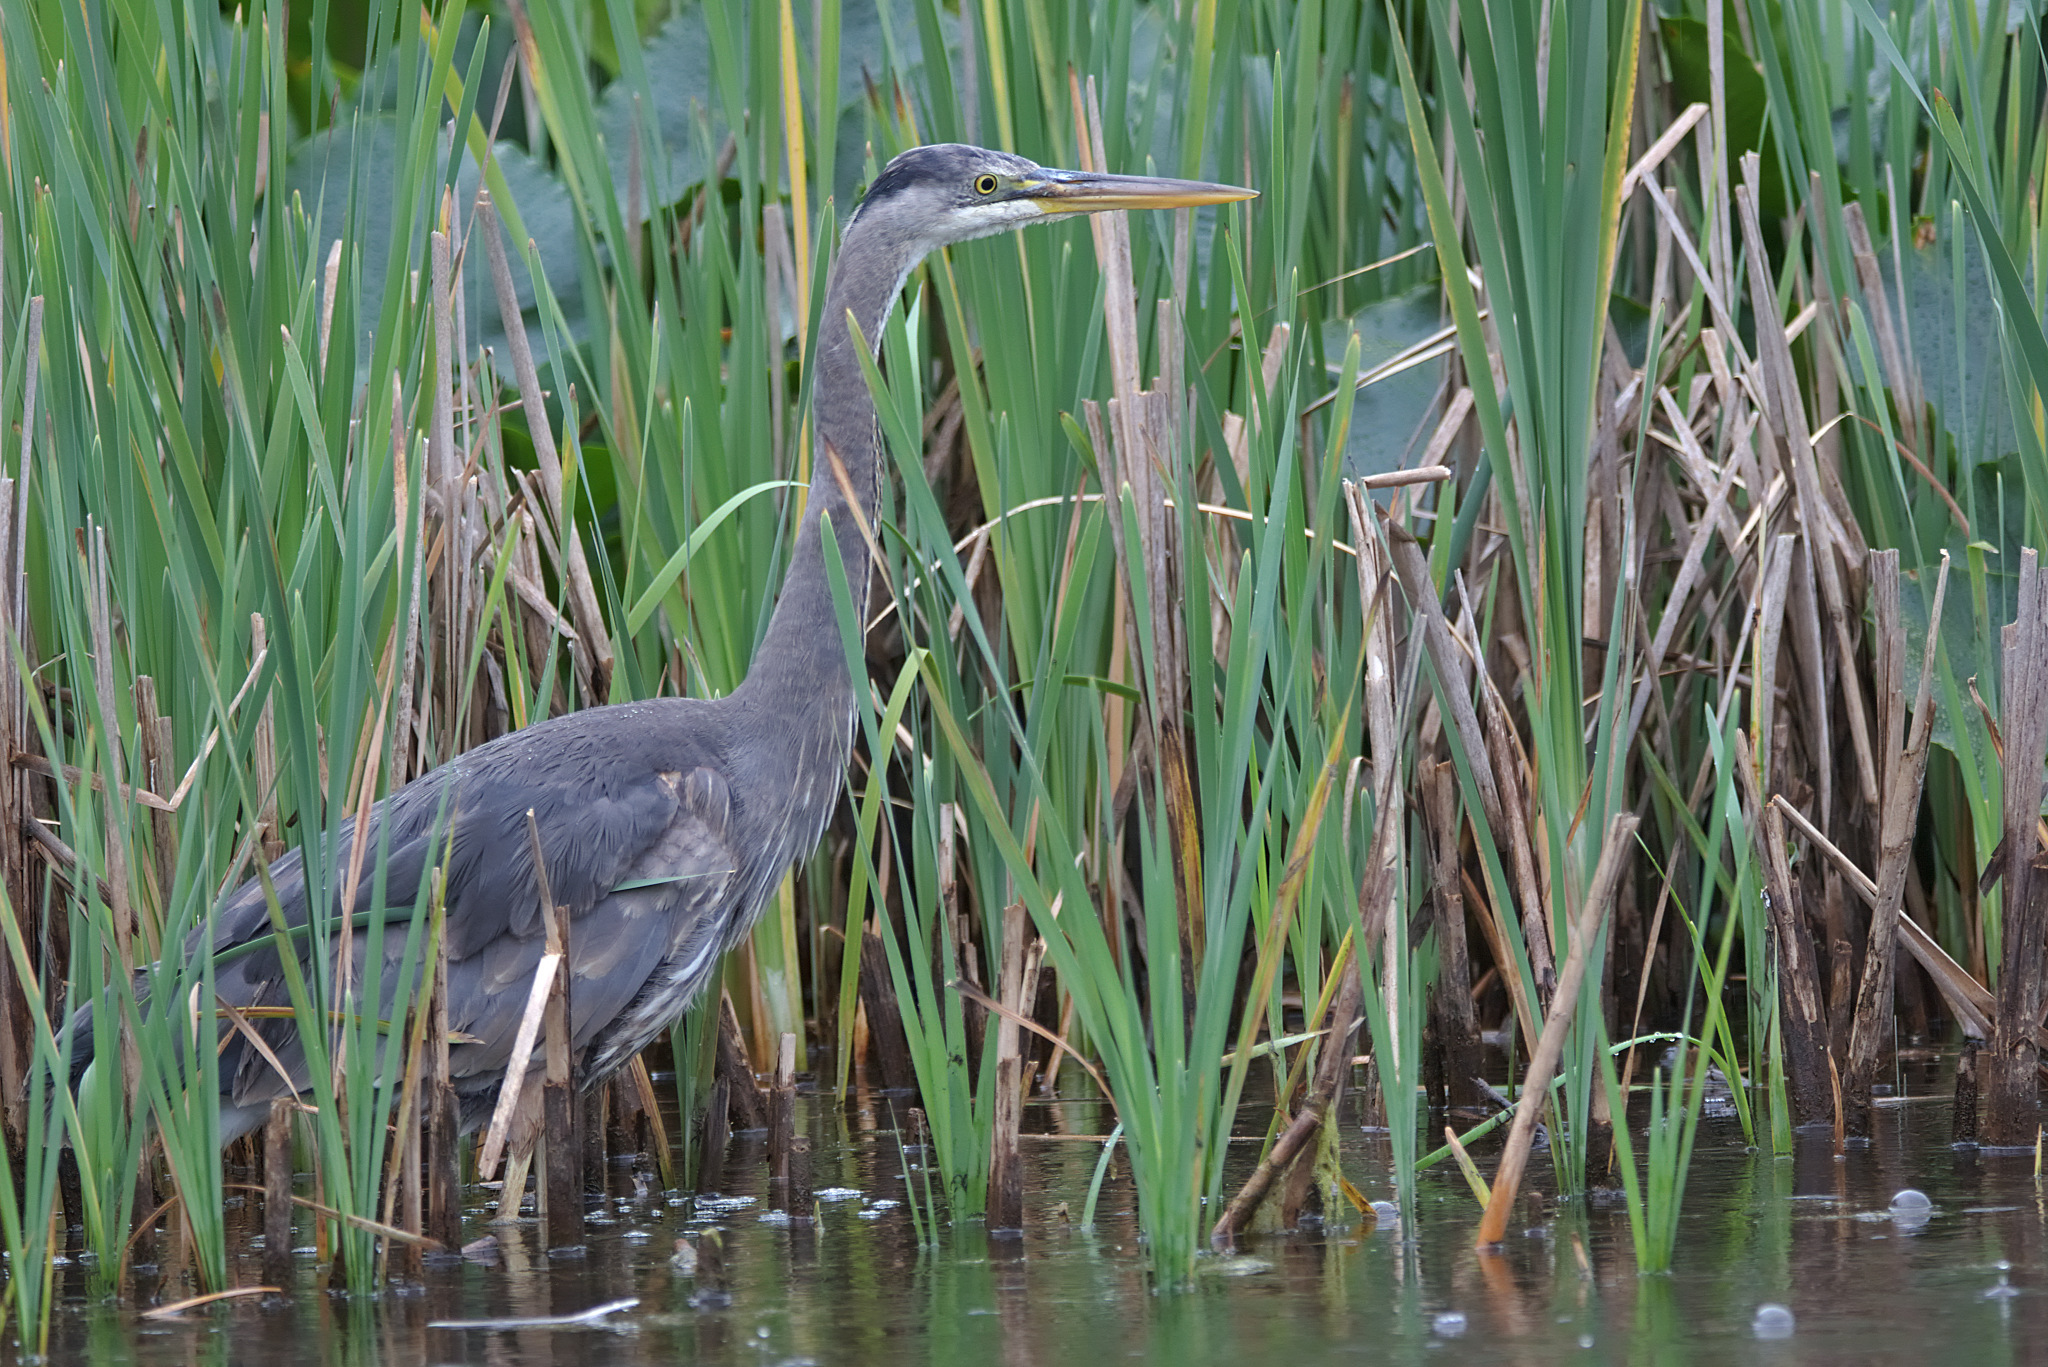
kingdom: Animalia
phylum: Chordata
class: Aves
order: Pelecaniformes
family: Ardeidae
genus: Ardea
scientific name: Ardea herodias
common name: Great blue heron
